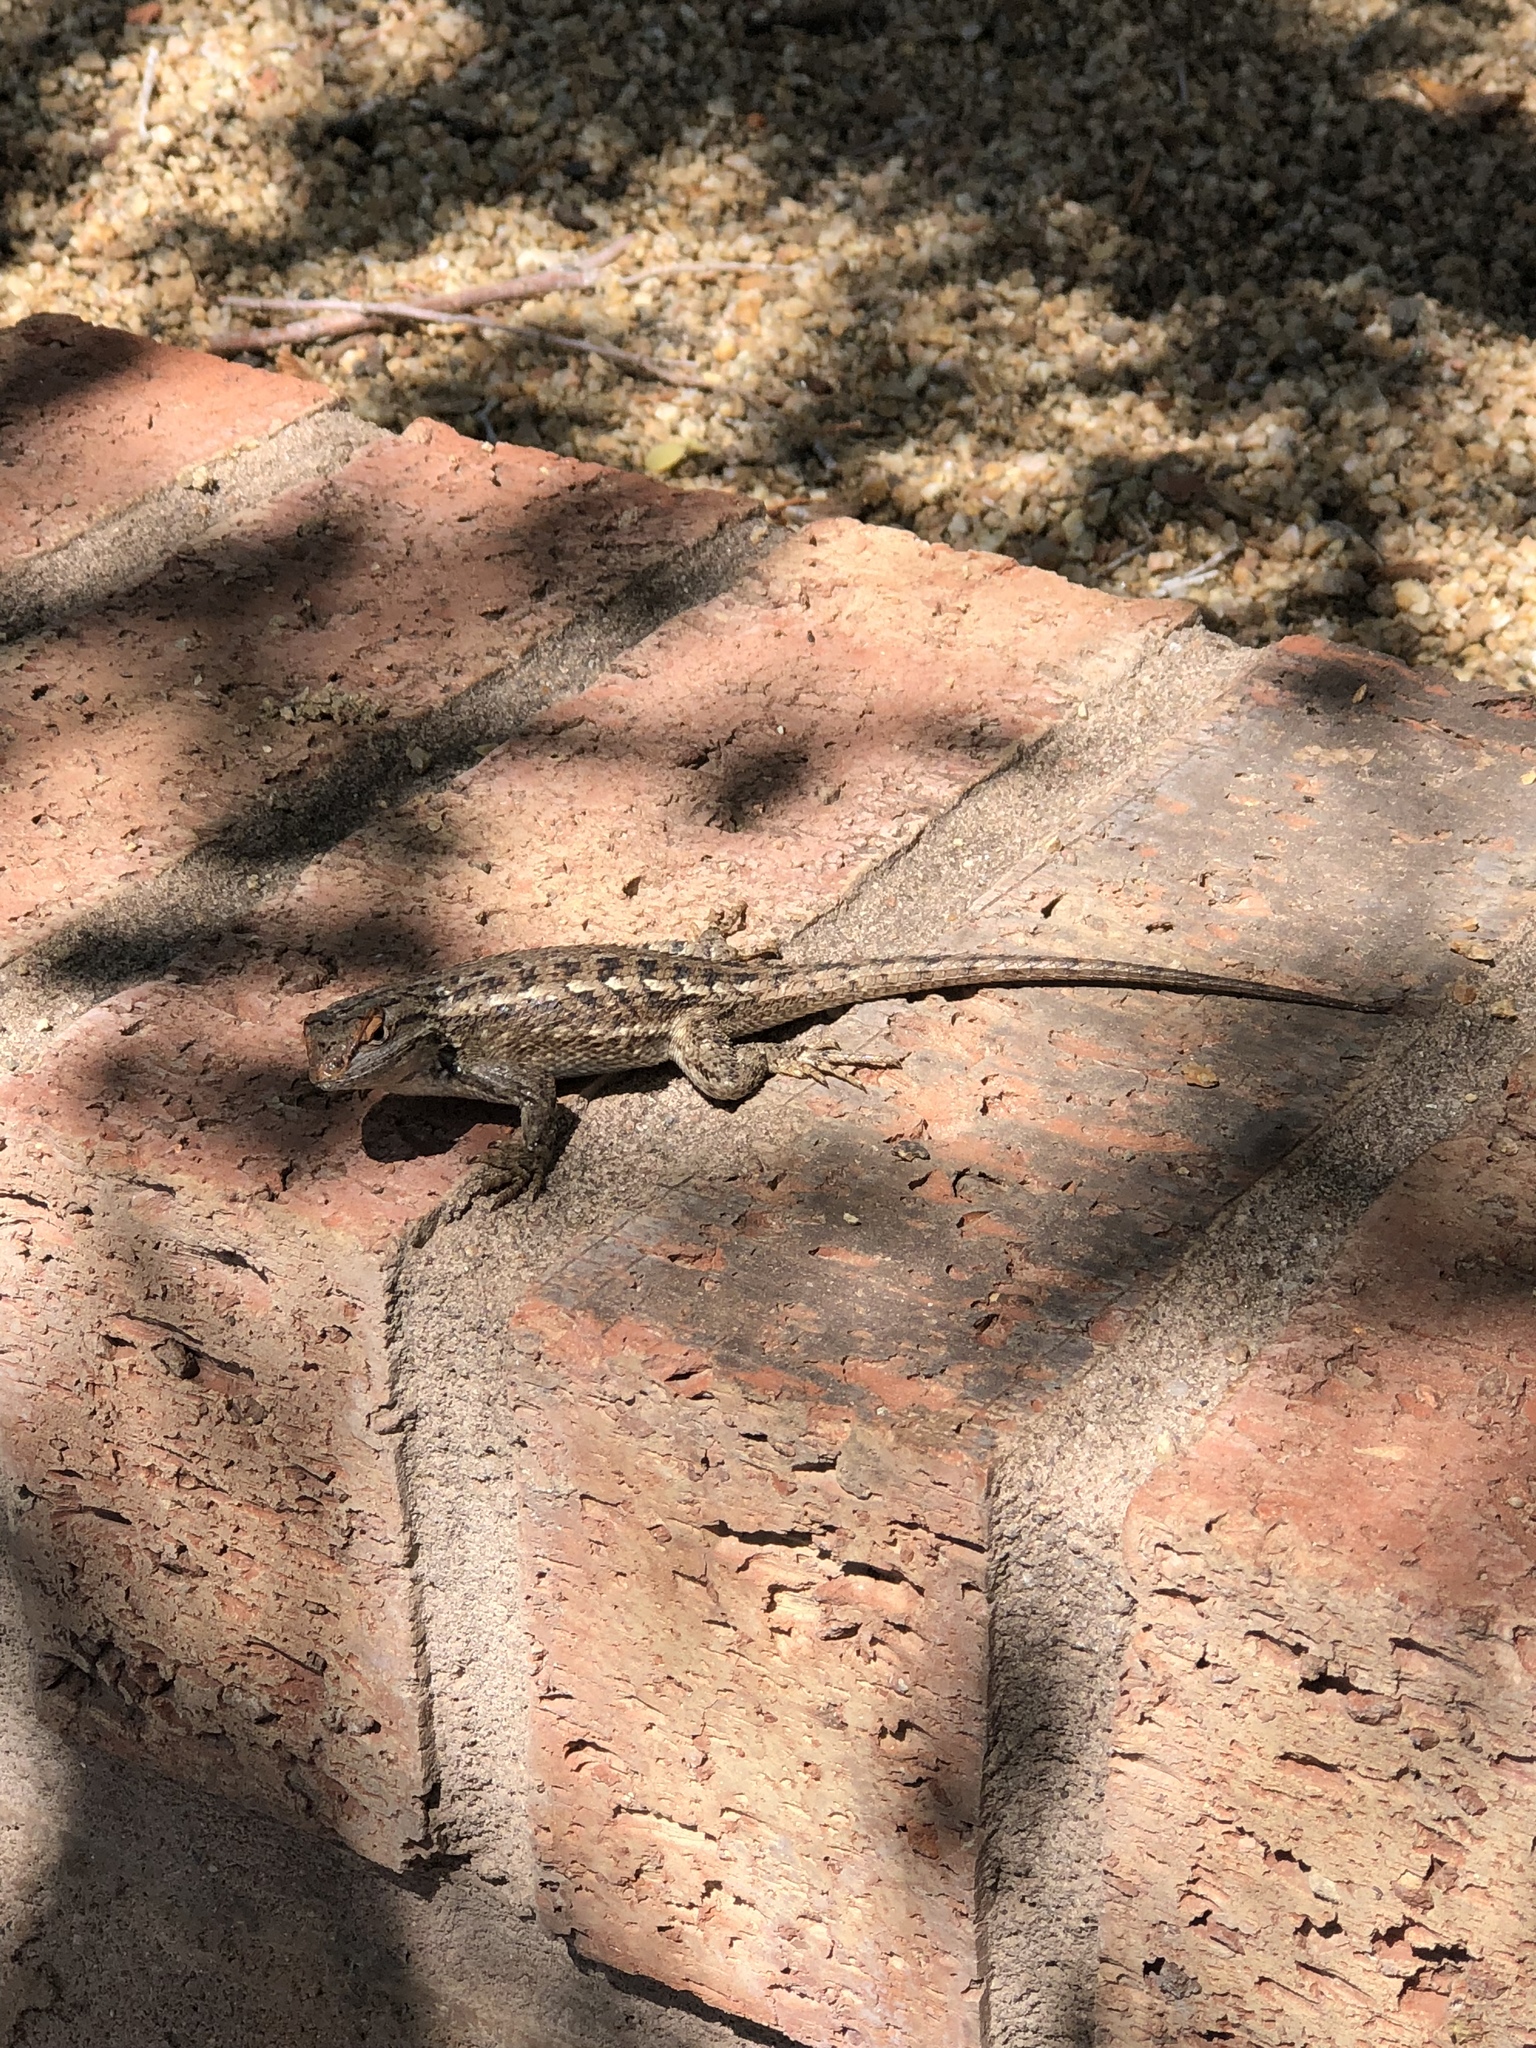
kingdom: Animalia
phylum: Chordata
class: Squamata
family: Phrynosomatidae
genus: Sceloporus
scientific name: Sceloporus tristichus
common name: Plateau fence lizard
